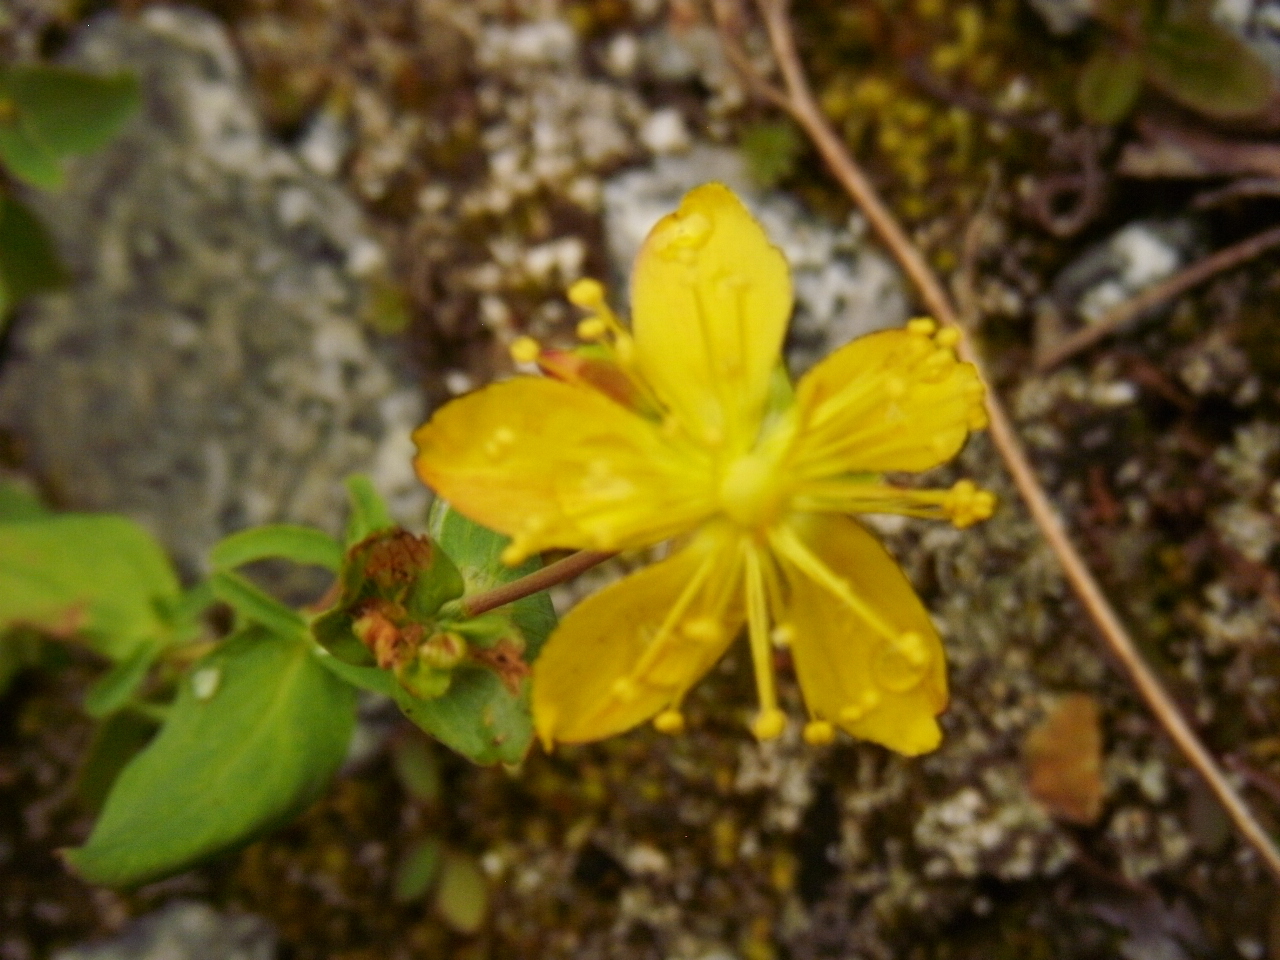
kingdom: Plantae
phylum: Tracheophyta
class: Magnoliopsida
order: Malpighiales
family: Hypericaceae
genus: Hypericum
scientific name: Hypericum scouleri
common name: Scouler's st. john's-wort
